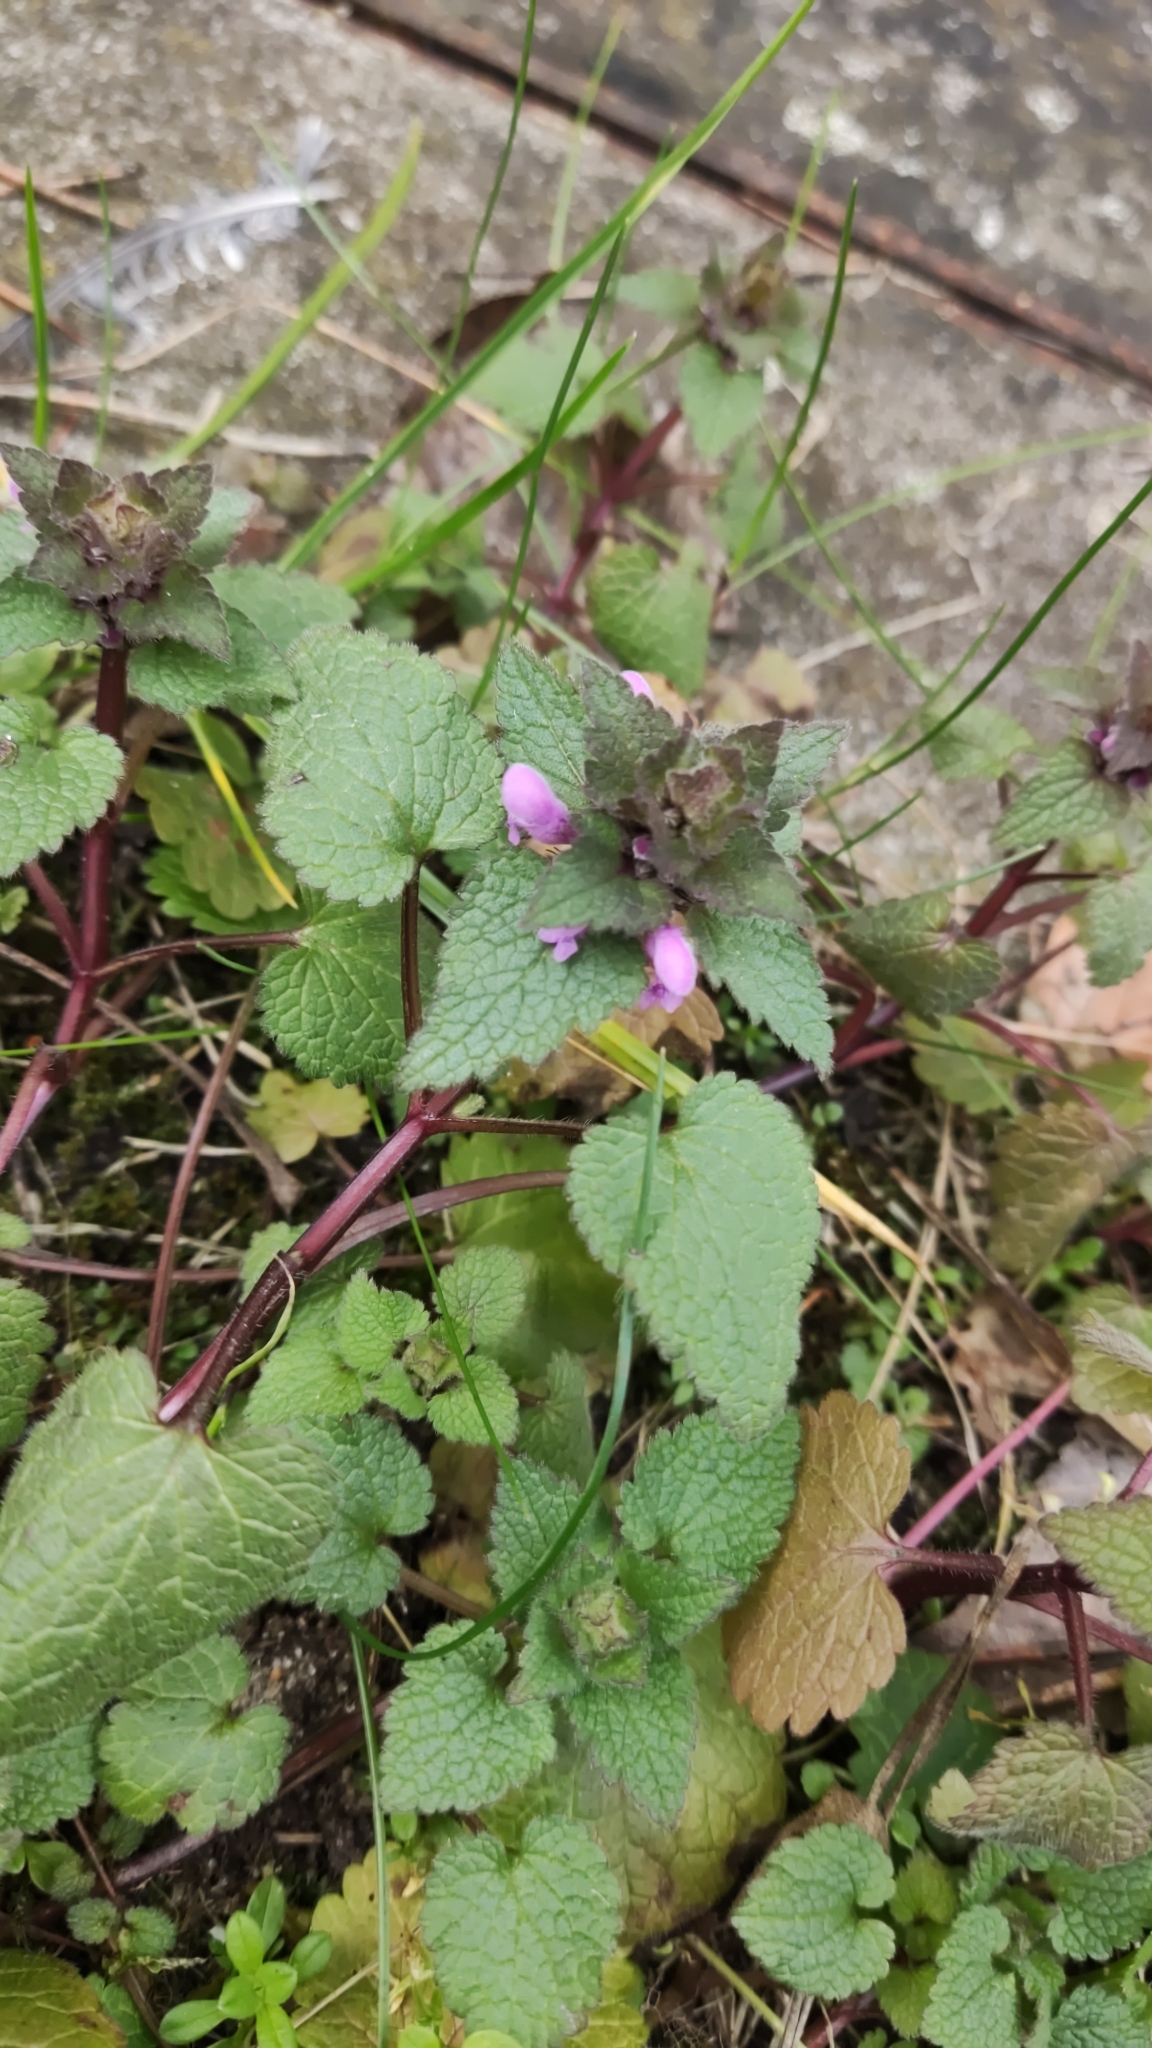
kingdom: Plantae
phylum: Tracheophyta
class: Magnoliopsida
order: Lamiales
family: Lamiaceae
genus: Lamium
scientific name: Lamium purpureum
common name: Red dead-nettle
